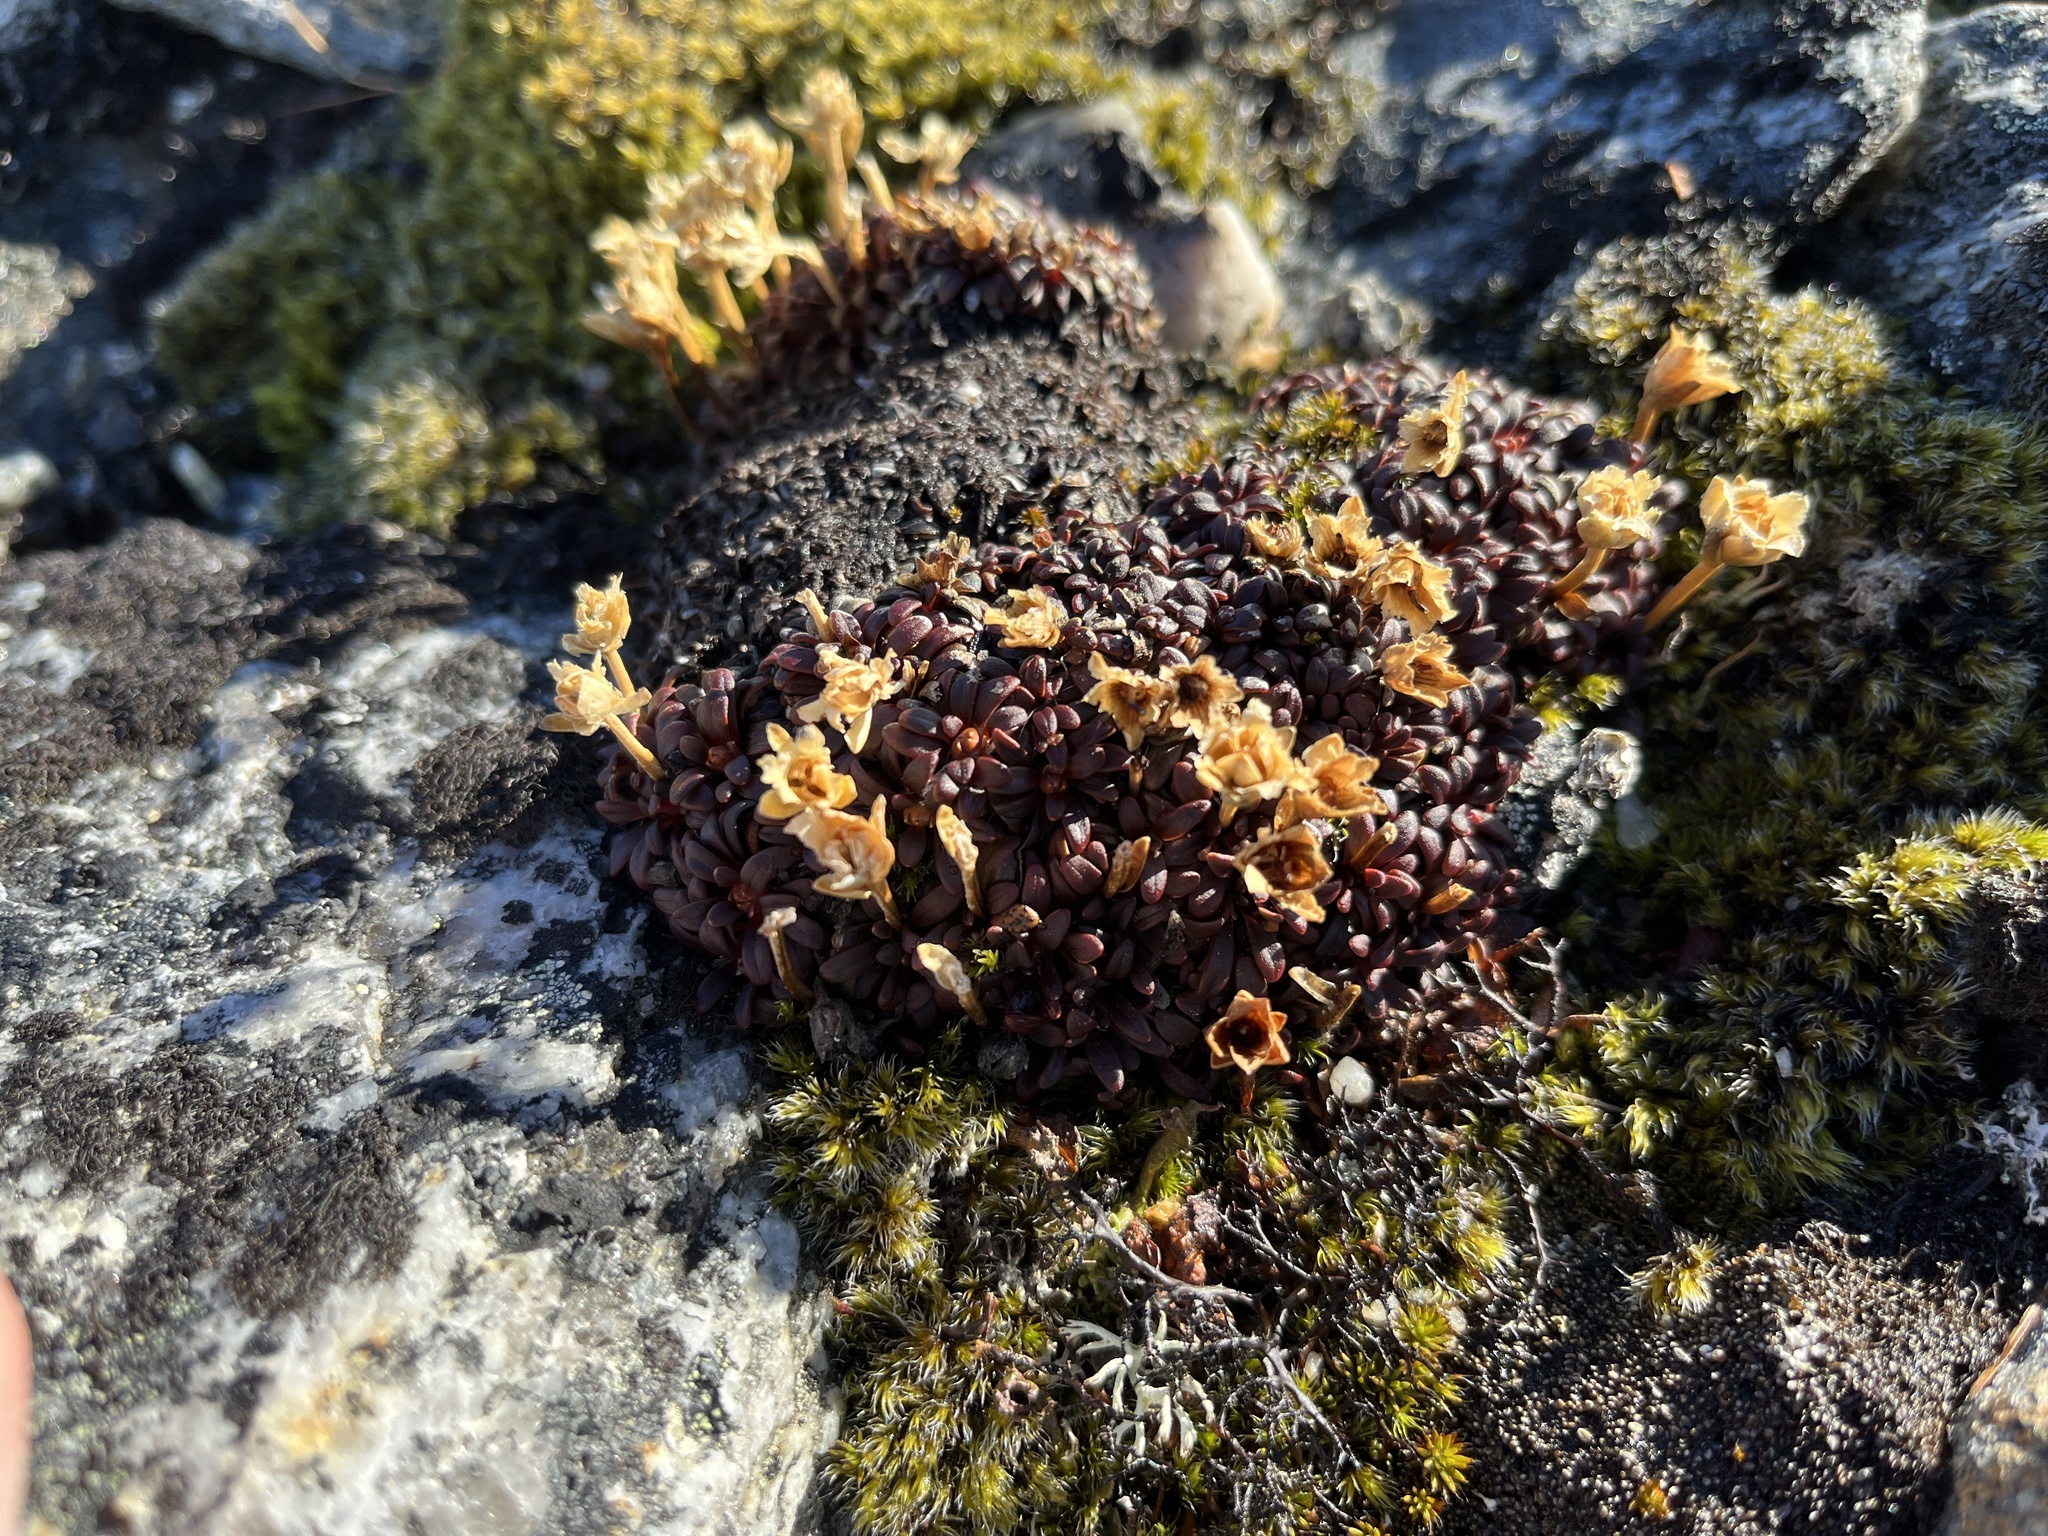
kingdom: Plantae
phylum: Tracheophyta
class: Magnoliopsida
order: Ericales
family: Diapensiaceae
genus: Diapensia
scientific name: Diapensia lapponica
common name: Diapensia
